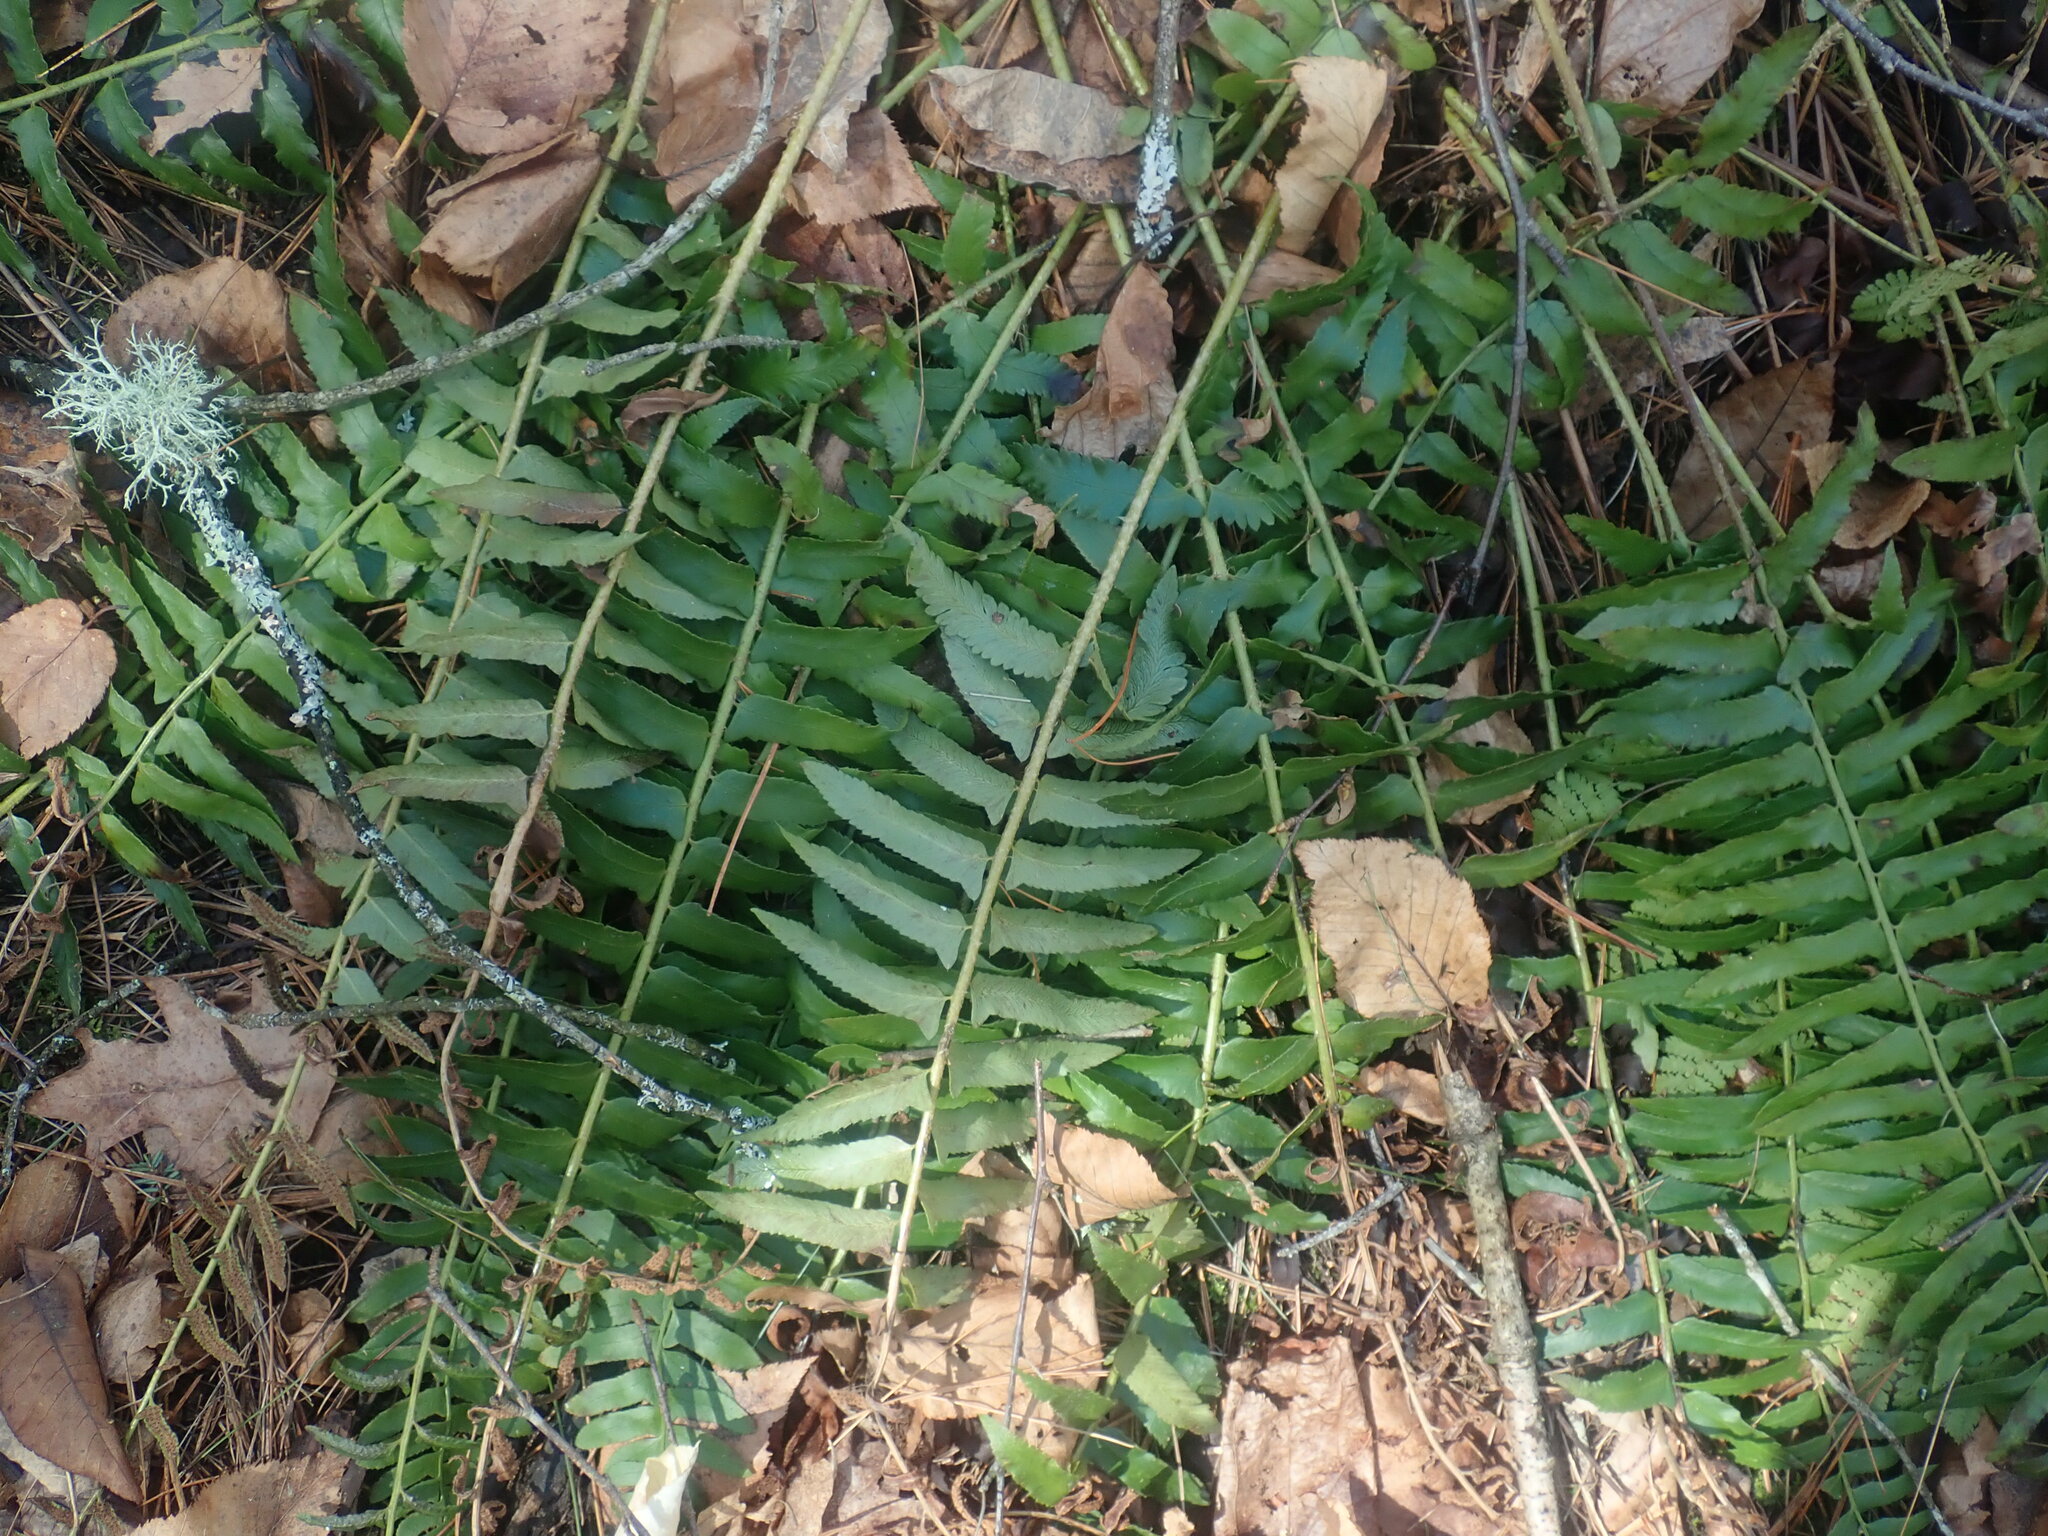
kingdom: Plantae
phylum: Tracheophyta
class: Polypodiopsida
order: Polypodiales
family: Dryopteridaceae
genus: Polystichum
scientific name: Polystichum acrostichoides
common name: Christmas fern
